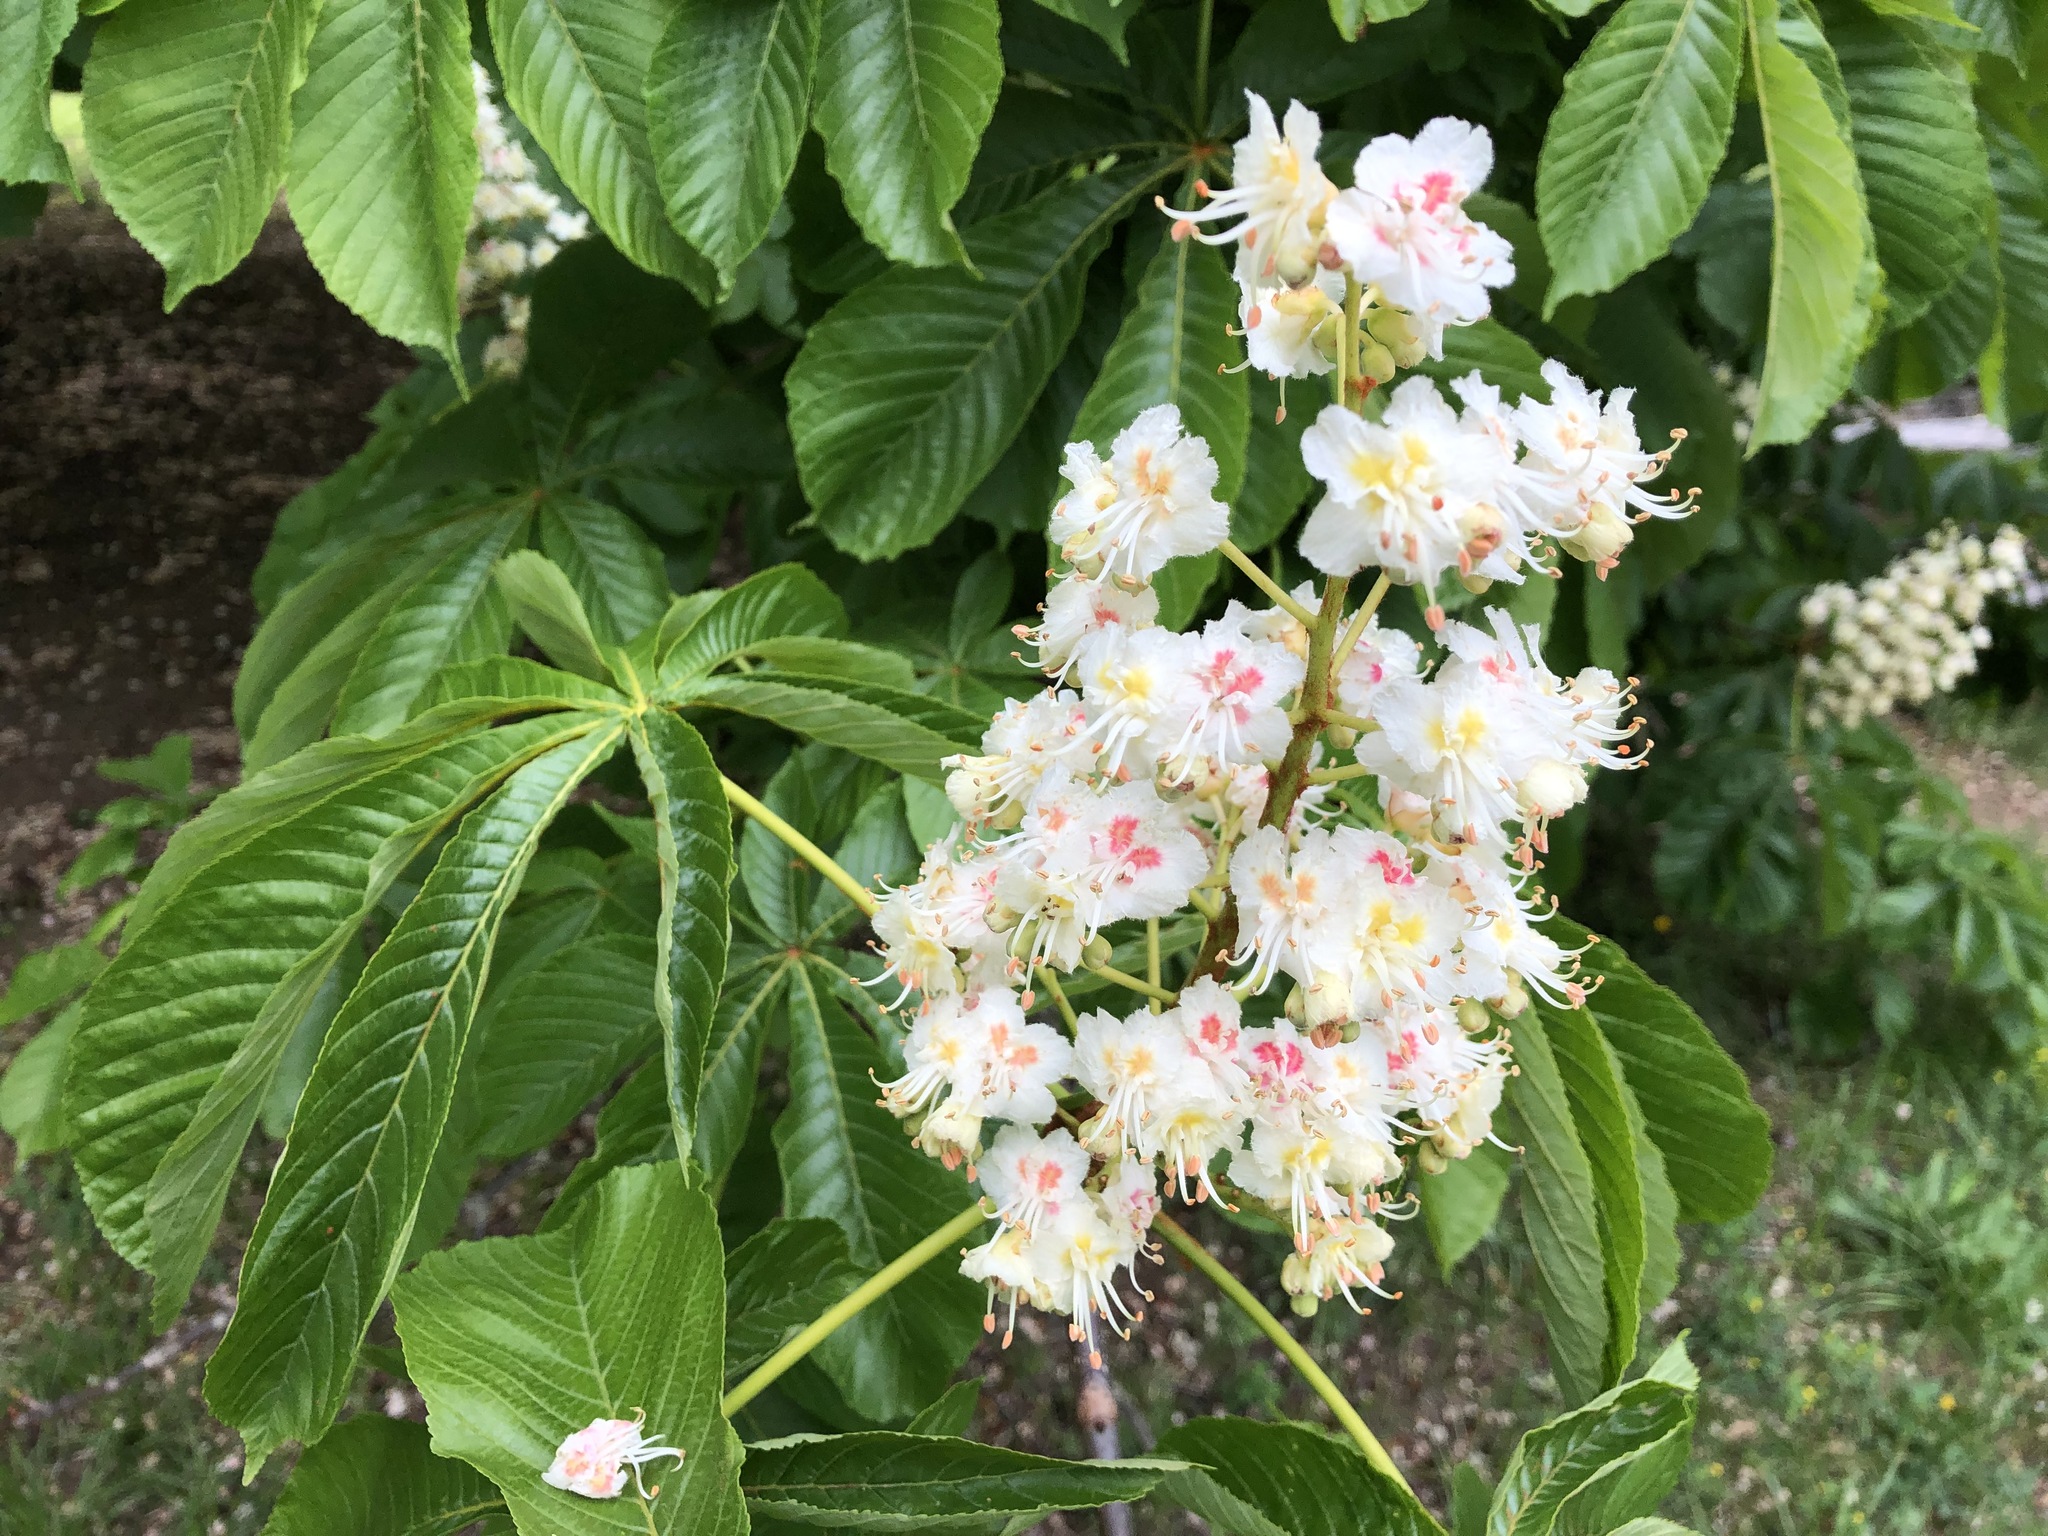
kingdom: Plantae
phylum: Tracheophyta
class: Magnoliopsida
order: Sapindales
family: Sapindaceae
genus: Aesculus
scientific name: Aesculus hippocastanum
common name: Horse-chestnut
